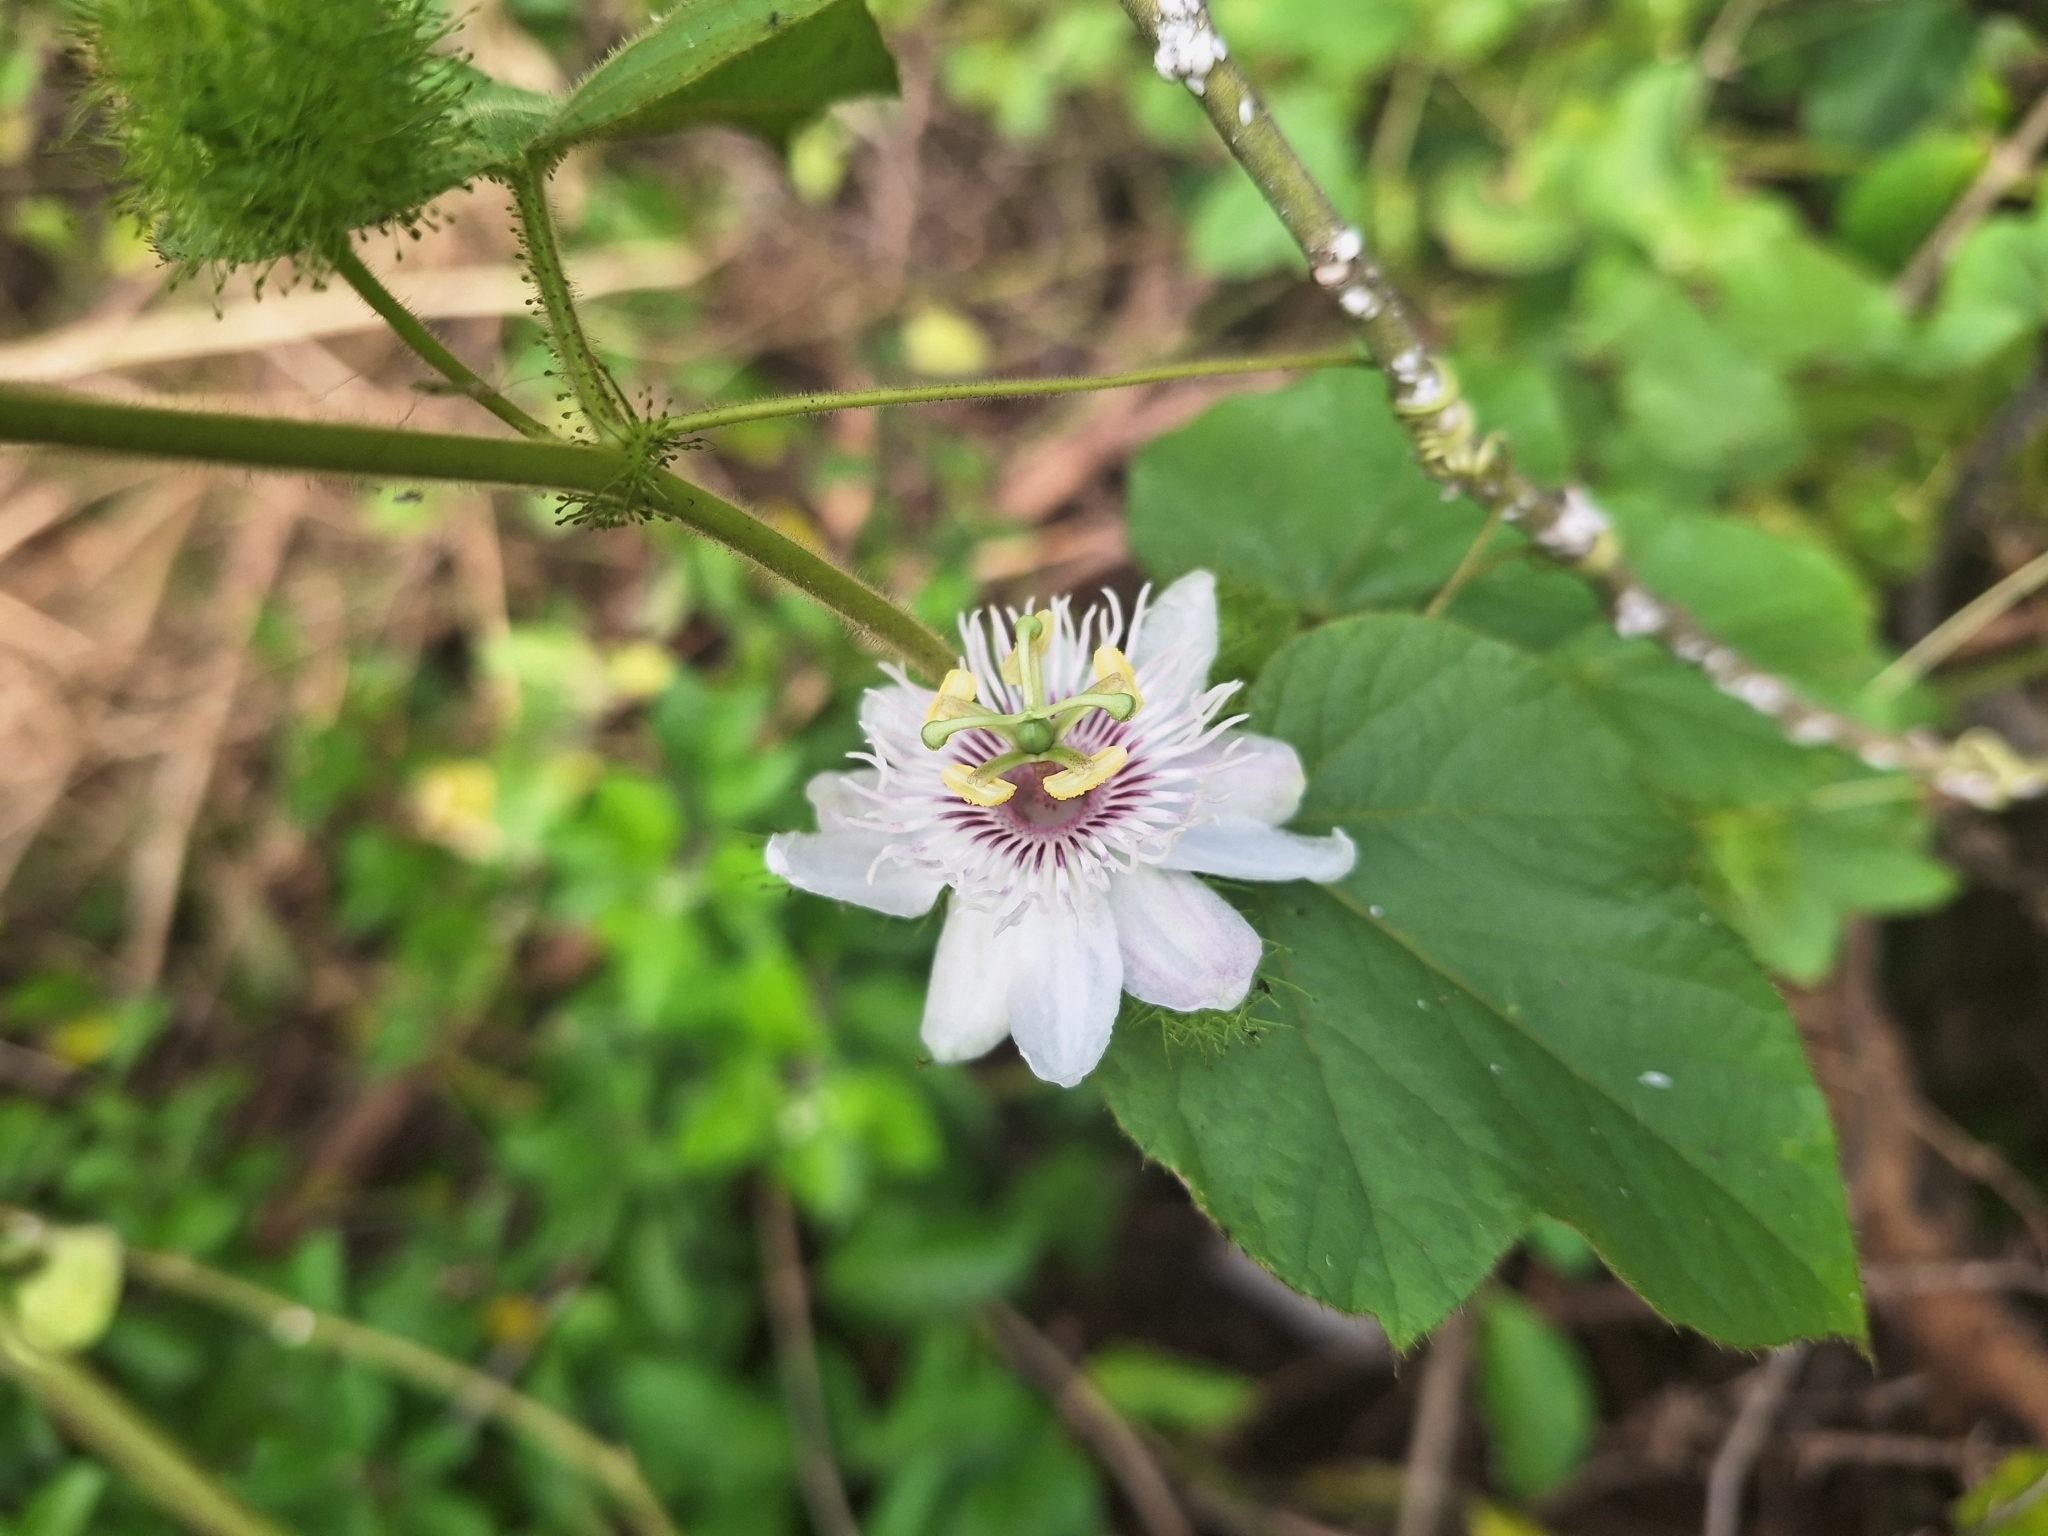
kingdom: Plantae
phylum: Tracheophyta
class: Magnoliopsida
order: Malpighiales
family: Passifloraceae
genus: Passiflora
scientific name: Passiflora vesicaria
